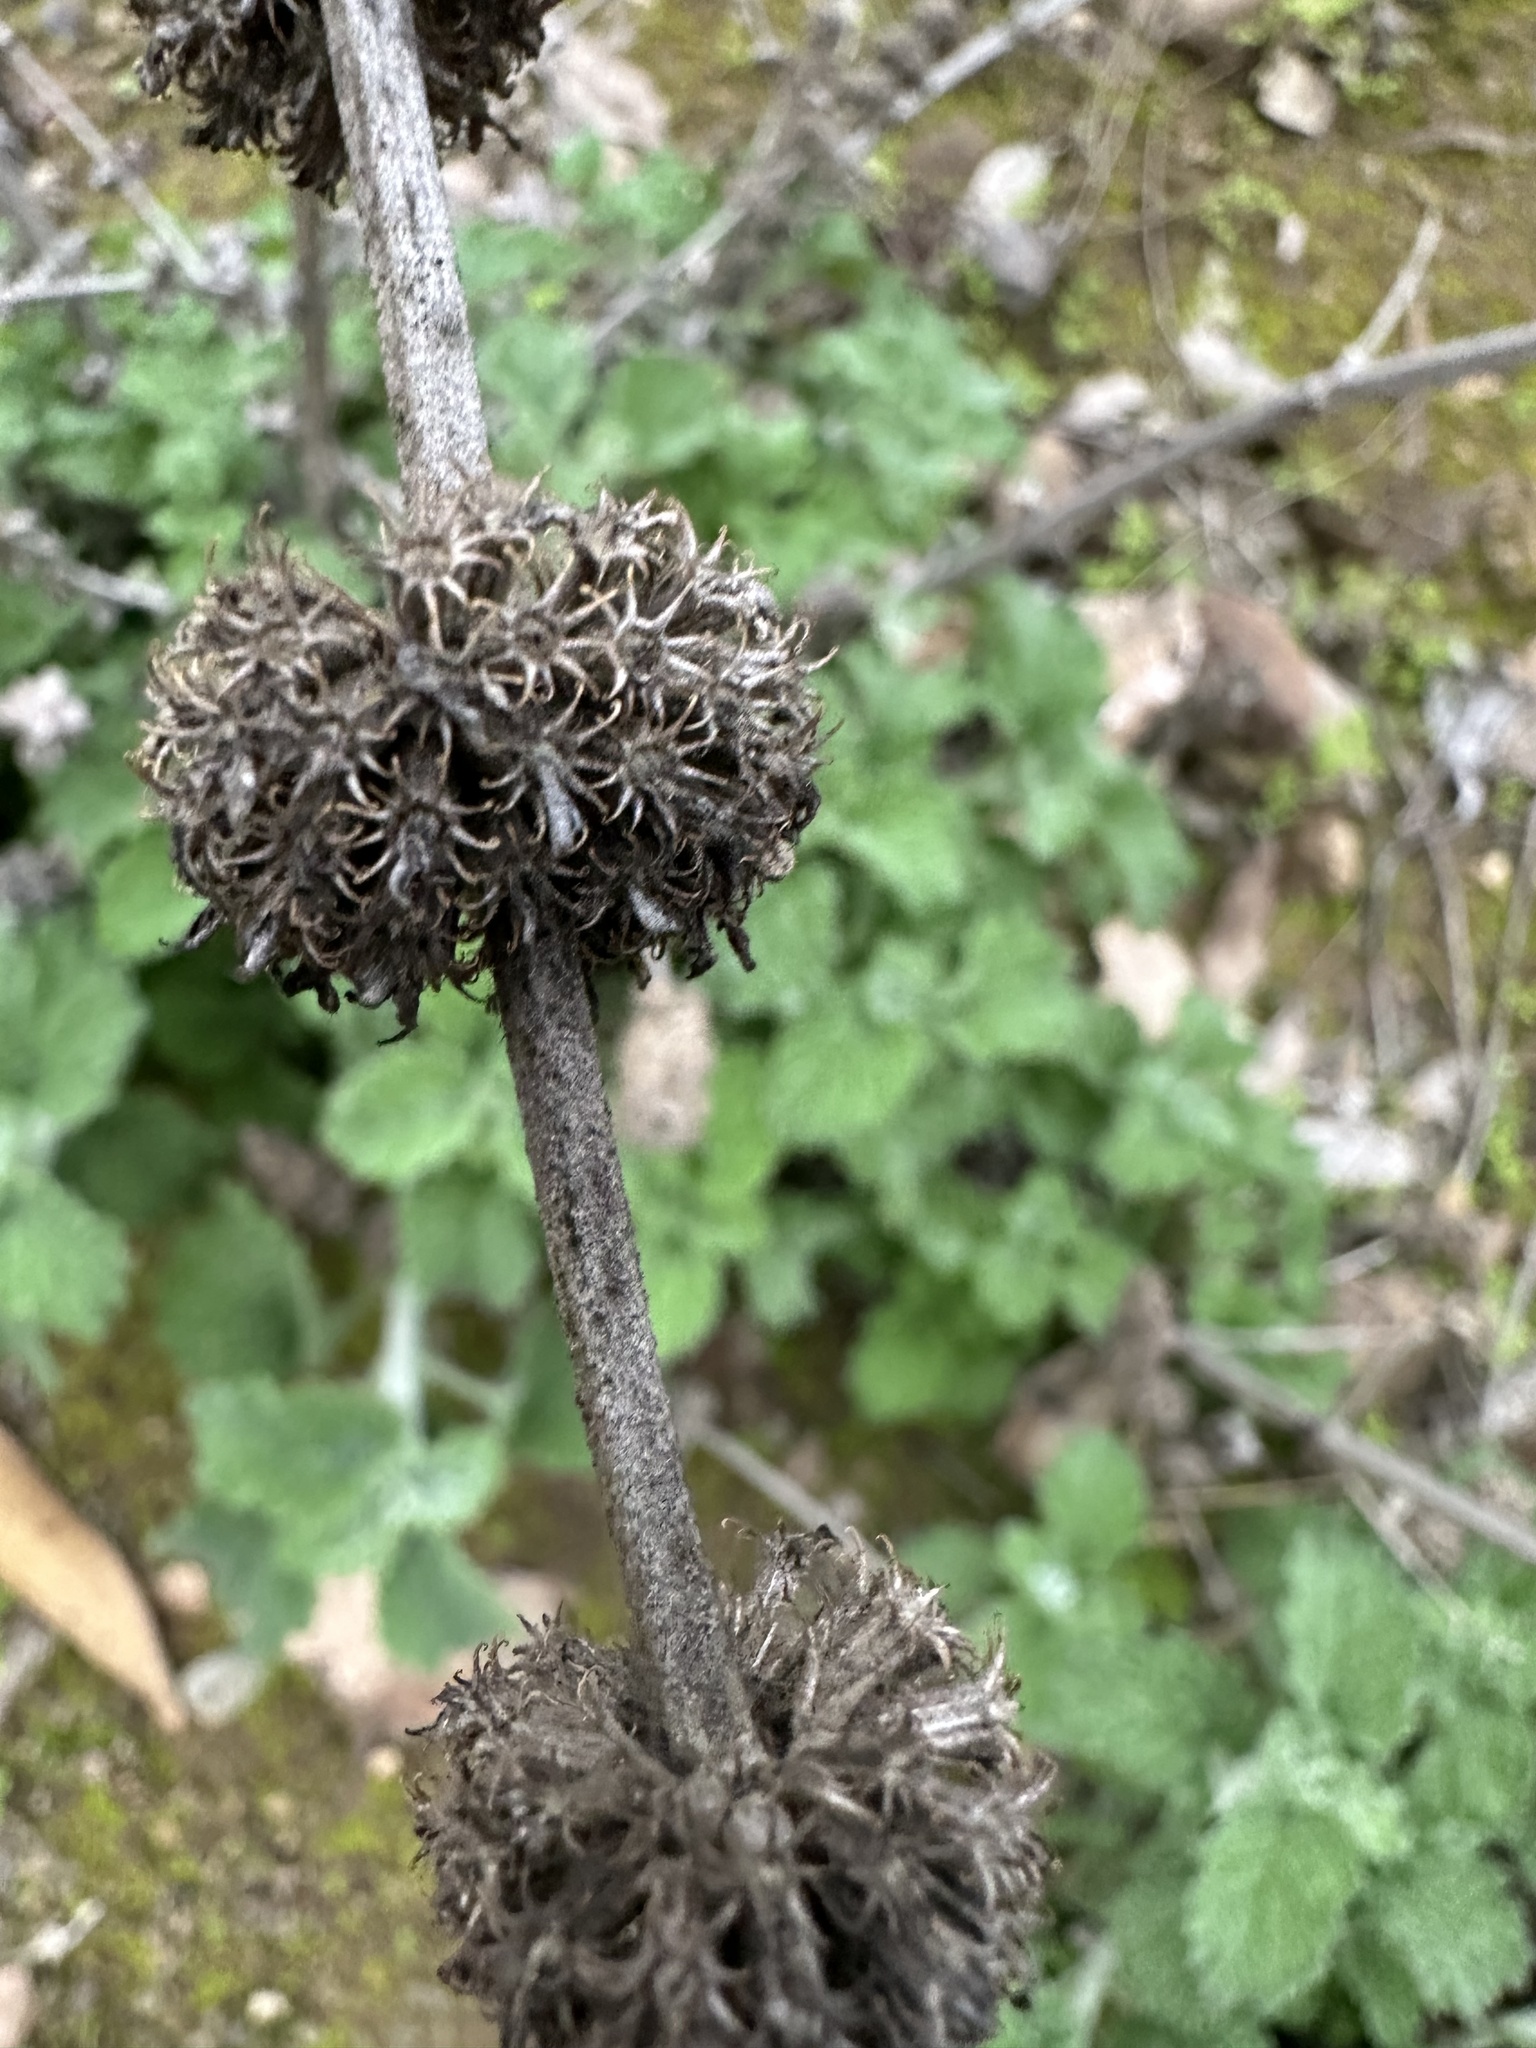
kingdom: Plantae
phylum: Tracheophyta
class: Magnoliopsida
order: Lamiales
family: Lamiaceae
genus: Marrubium
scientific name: Marrubium vulgare
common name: Horehound
